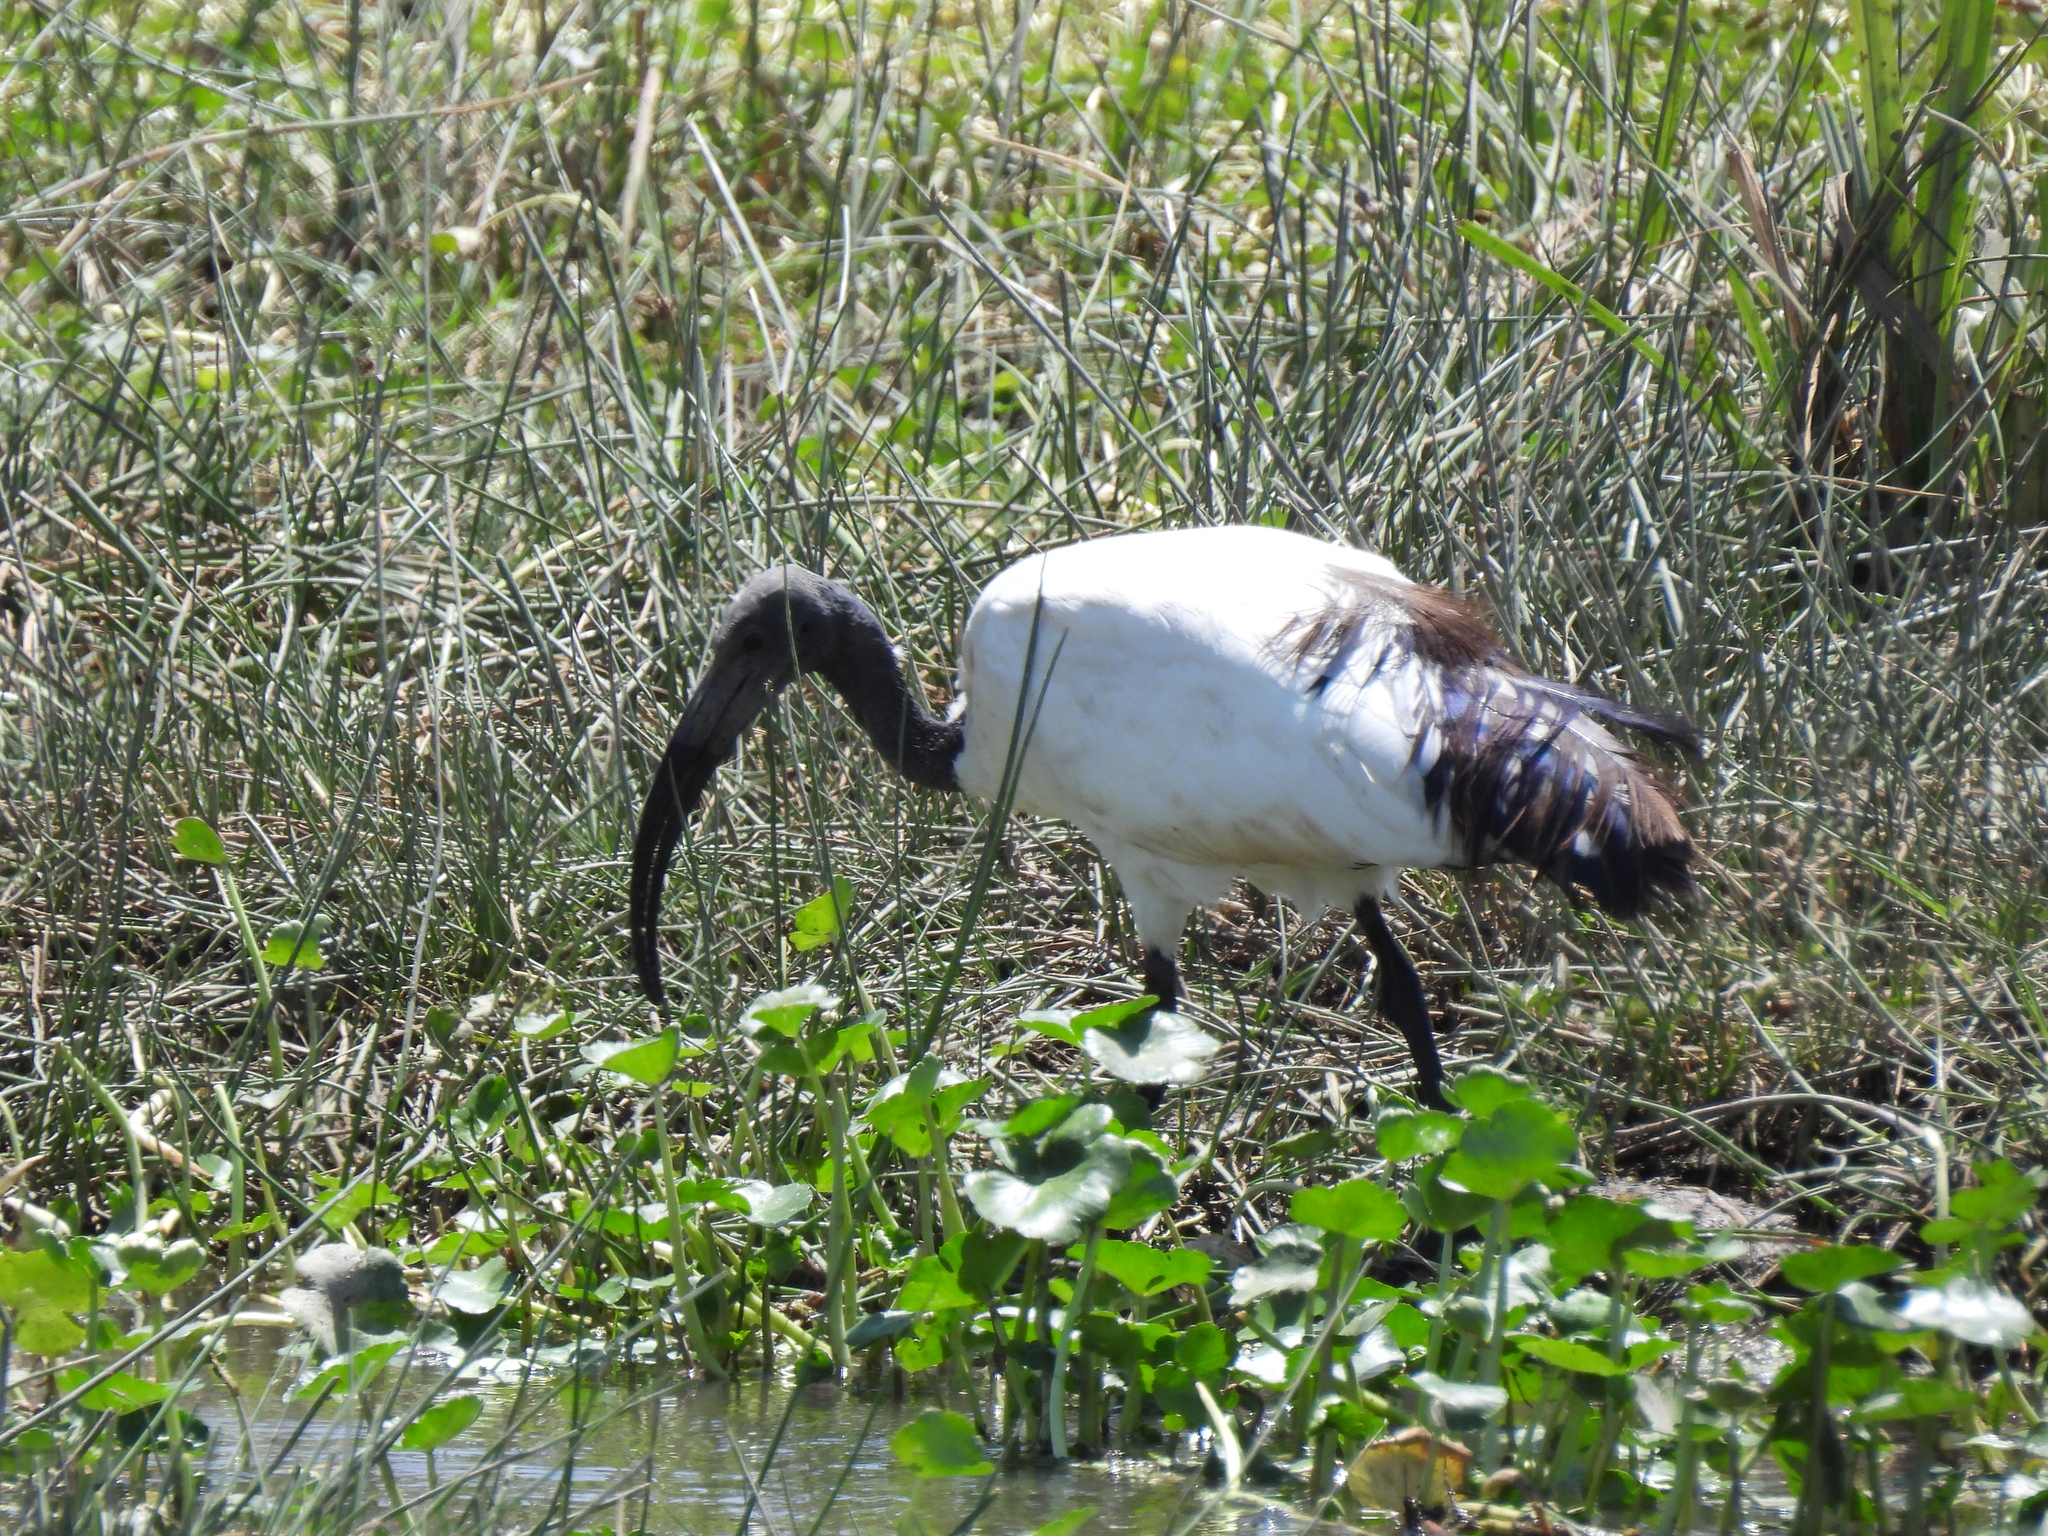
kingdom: Animalia
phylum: Chordata
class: Aves
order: Pelecaniformes
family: Threskiornithidae
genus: Threskiornis
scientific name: Threskiornis aethiopicus
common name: Sacred ibis
